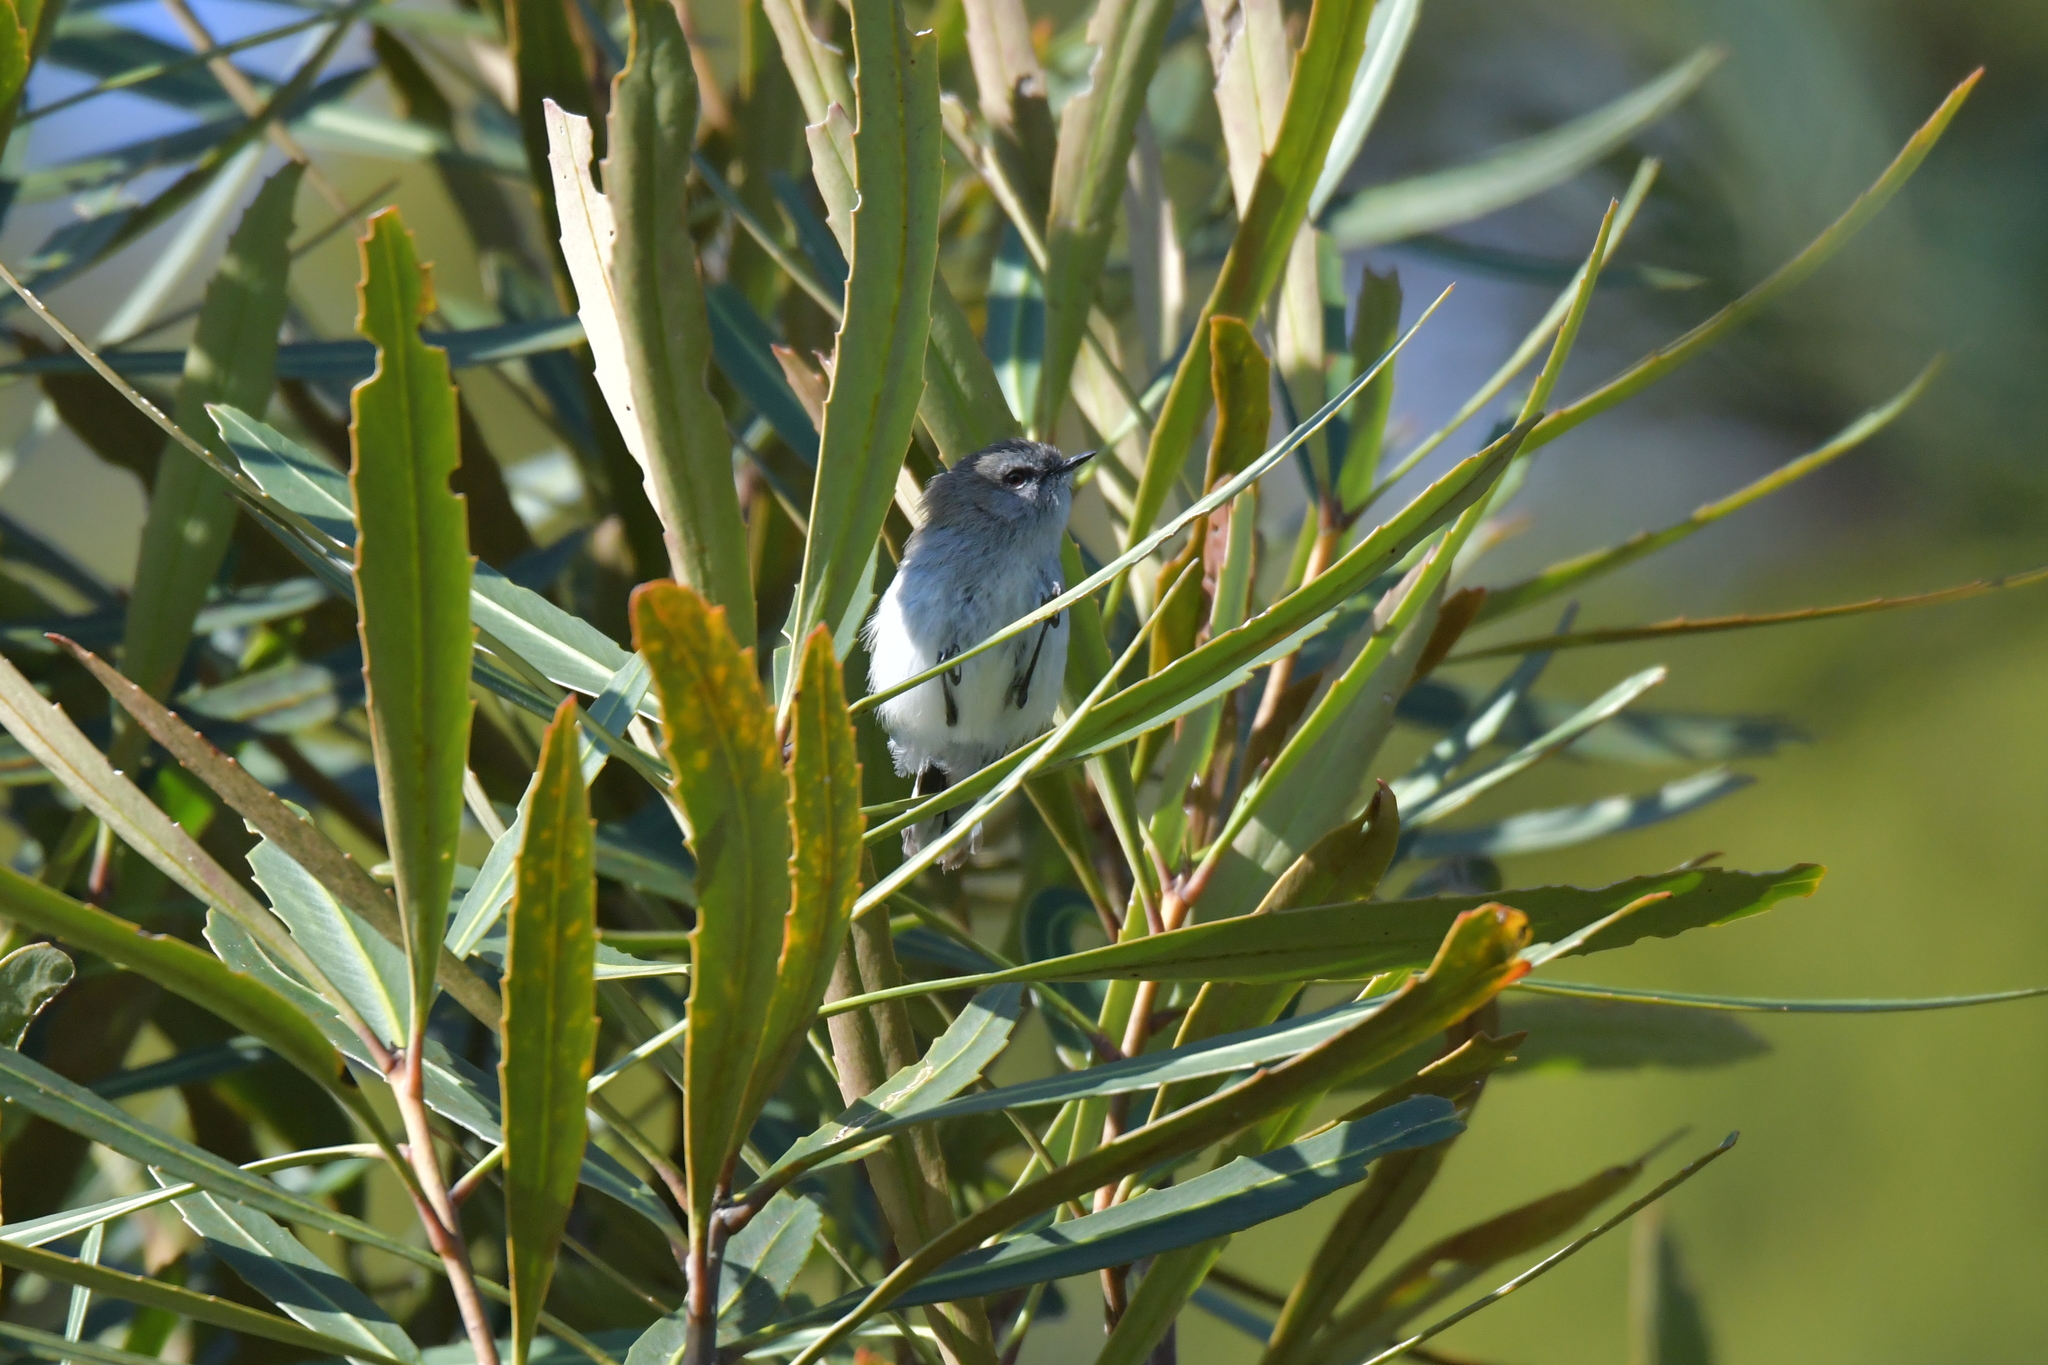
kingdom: Animalia
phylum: Chordata
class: Aves
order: Passeriformes
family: Acanthizidae
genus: Gerygone
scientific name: Gerygone igata
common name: Grey gerygone
